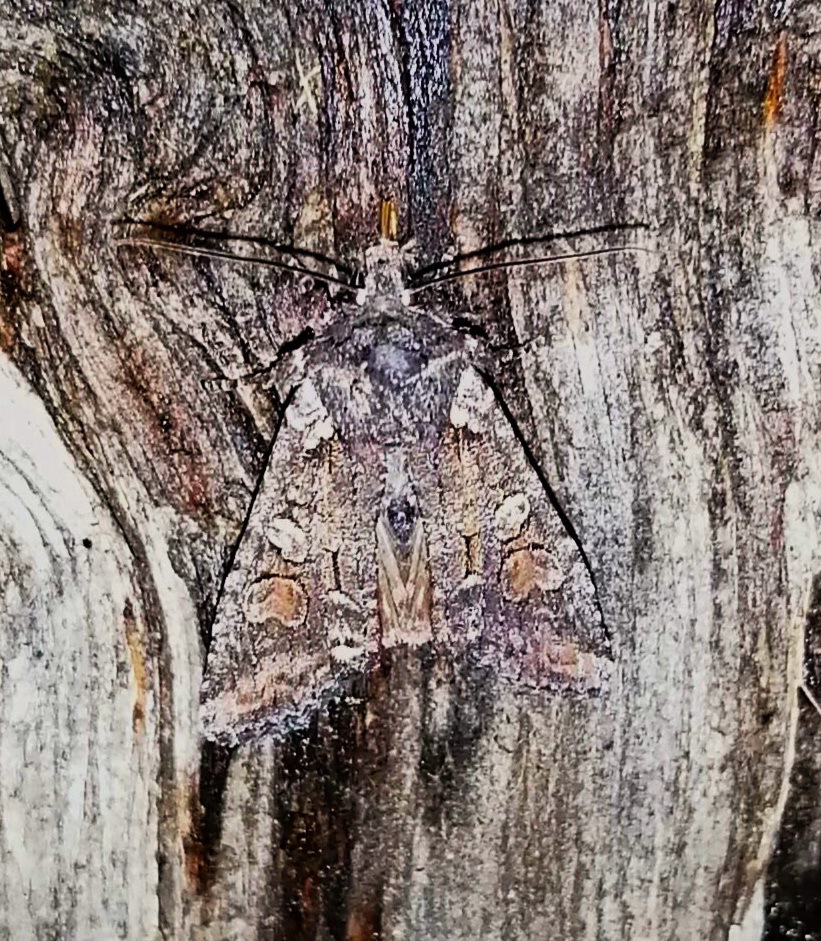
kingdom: Animalia
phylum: Arthropoda
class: Insecta
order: Lepidoptera
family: Noctuidae
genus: Lithophane
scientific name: Lithophane pexata
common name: Plush-naped pinion moth
